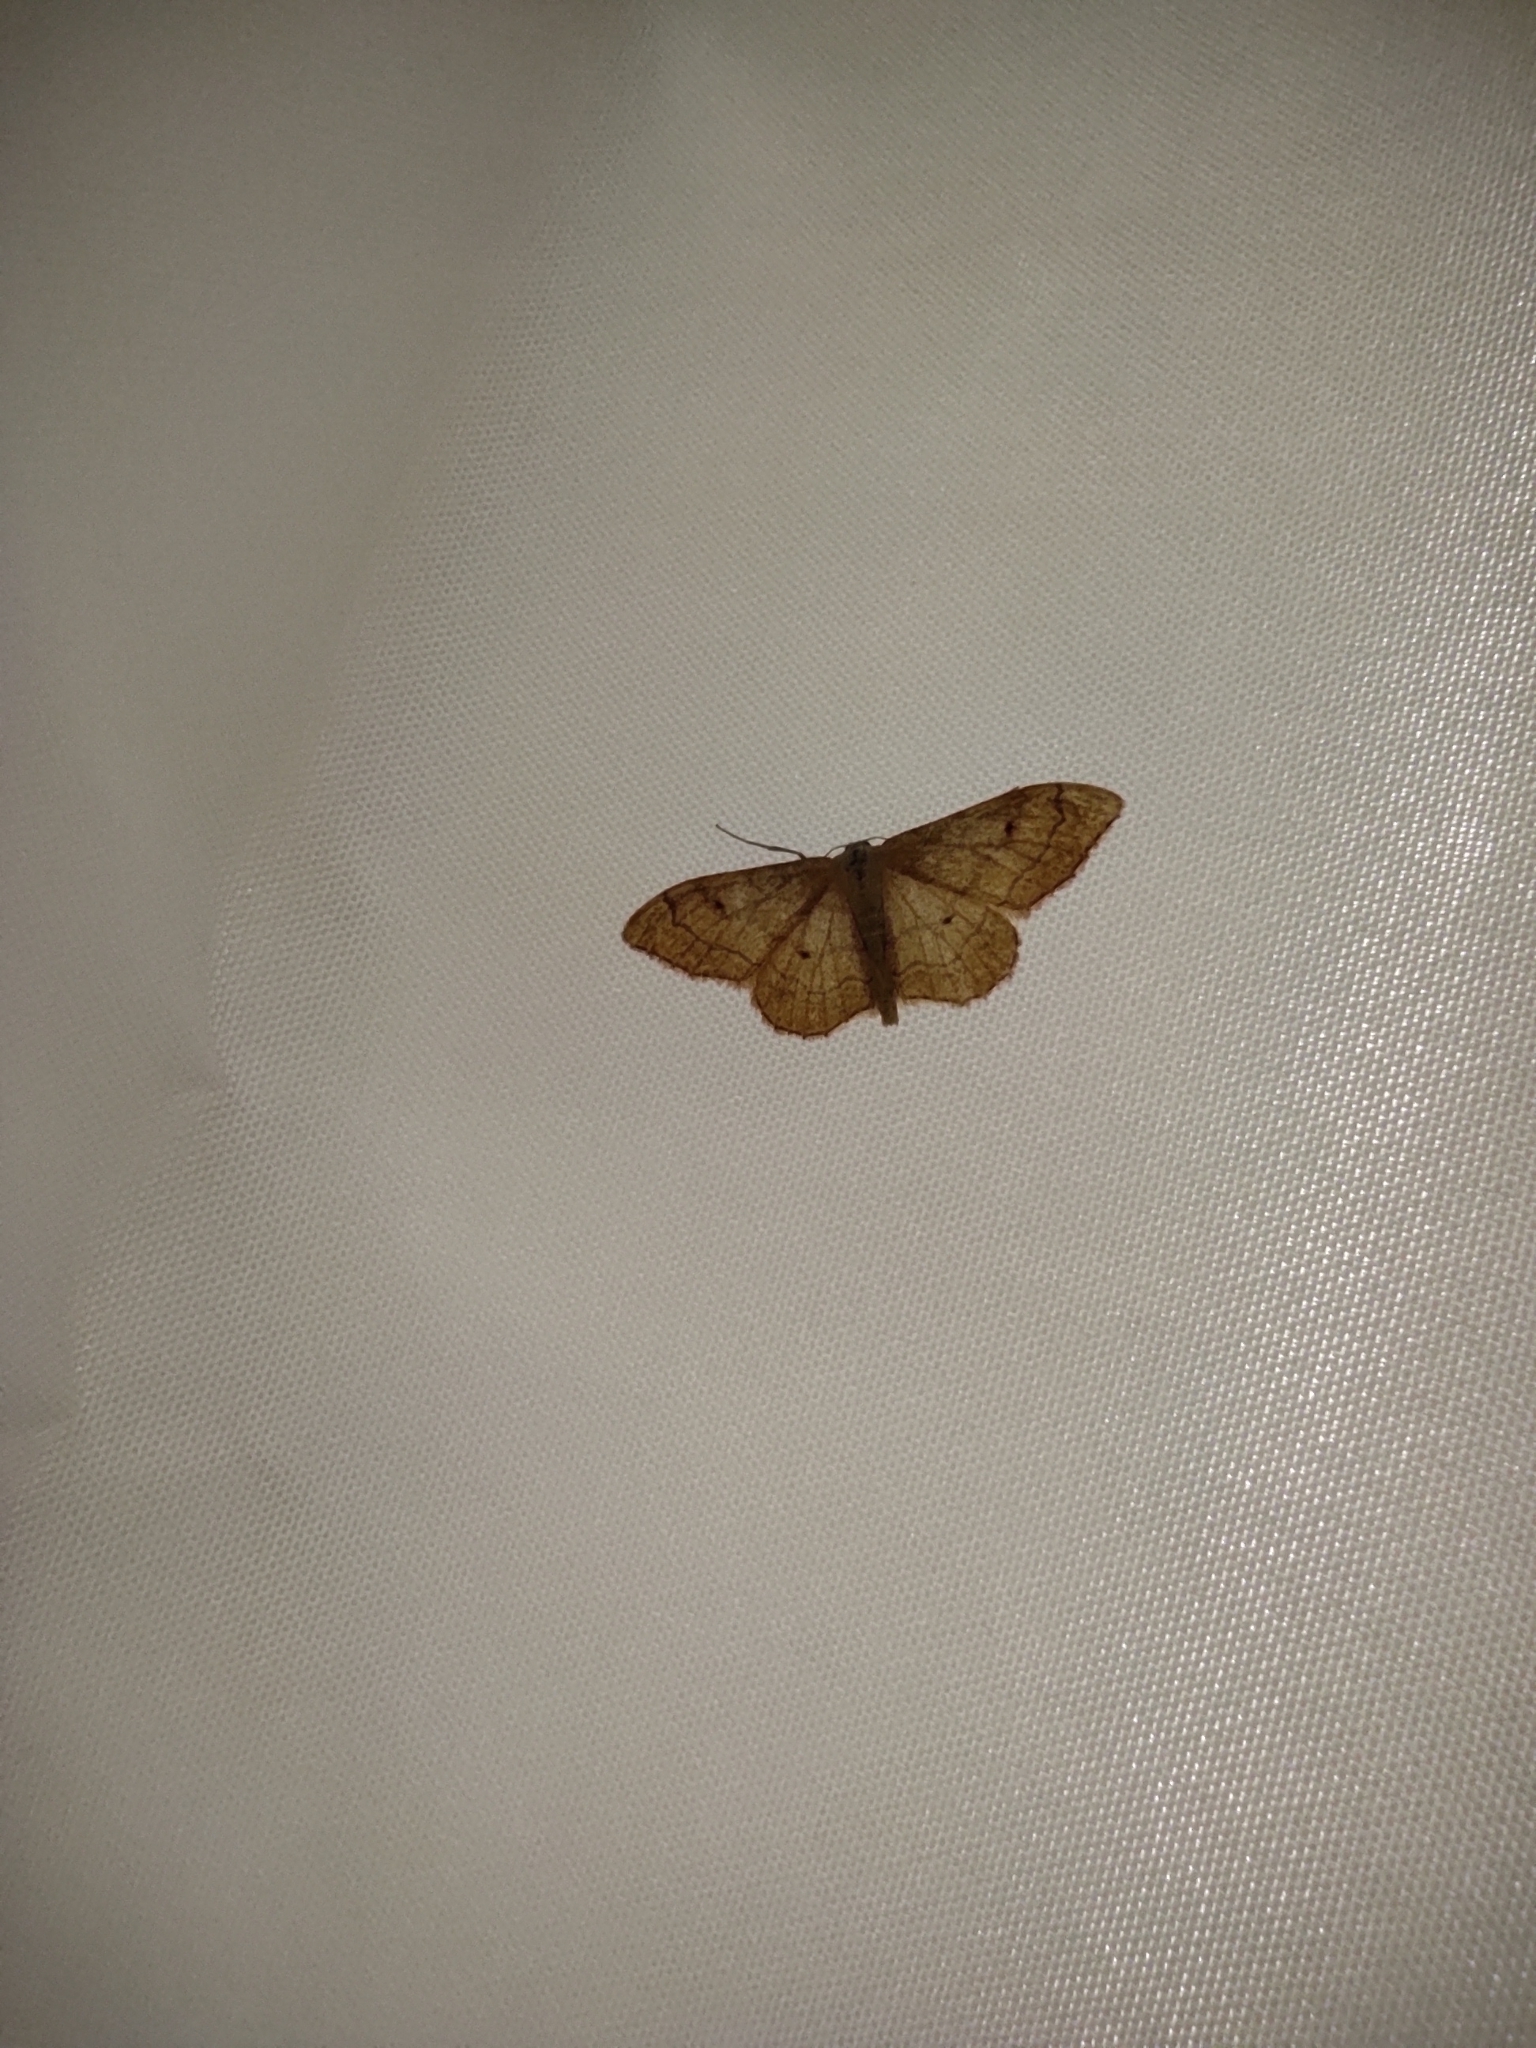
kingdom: Animalia
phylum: Arthropoda
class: Insecta
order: Lepidoptera
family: Geometridae
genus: Idaea
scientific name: Idaea aversata
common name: Riband wave
